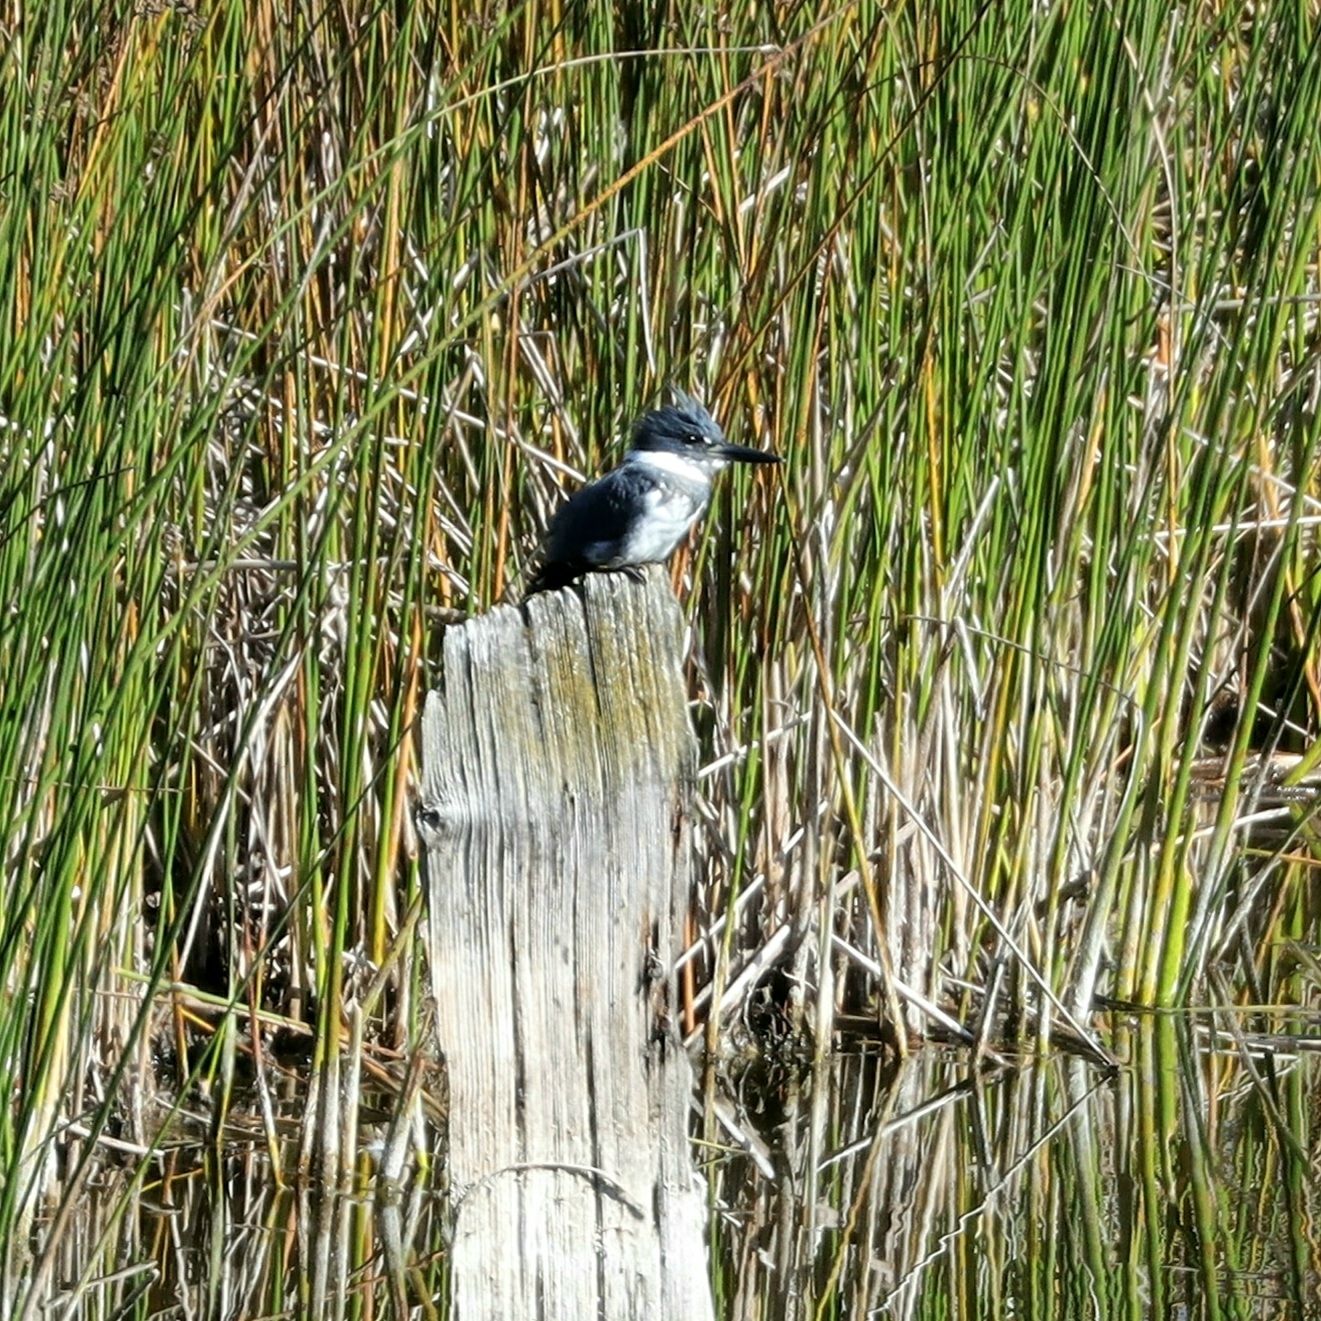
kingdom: Animalia
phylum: Chordata
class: Aves
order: Coraciiformes
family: Alcedinidae
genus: Megaceryle
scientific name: Megaceryle alcyon
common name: Belted kingfisher
